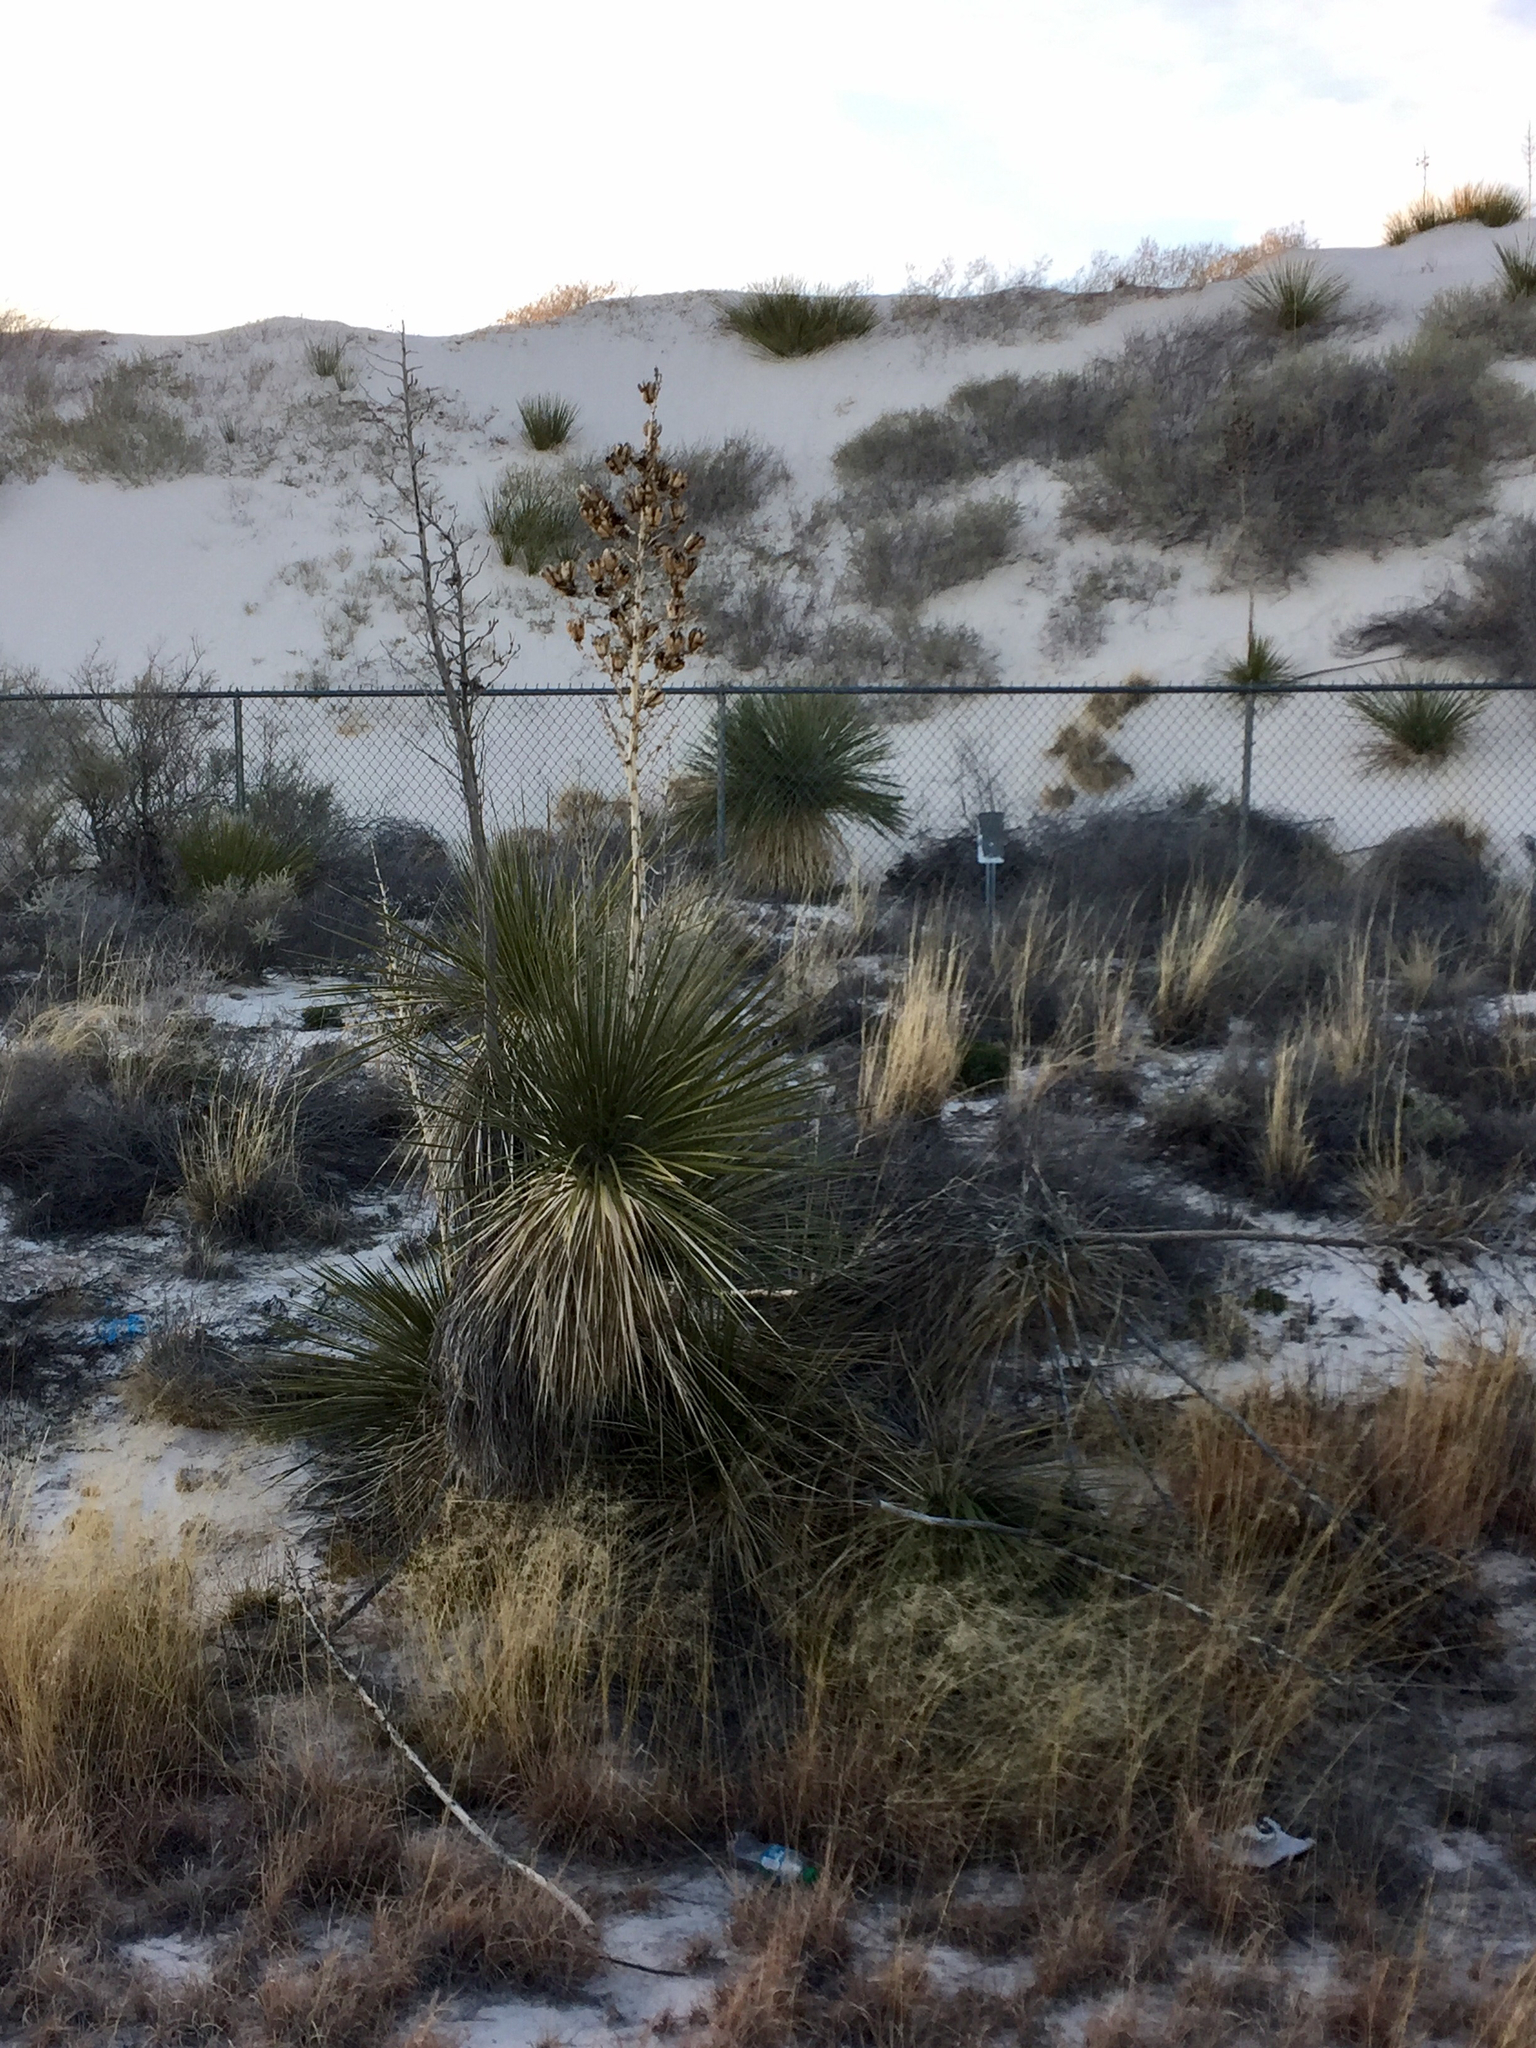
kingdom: Plantae
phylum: Tracheophyta
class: Liliopsida
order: Asparagales
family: Asparagaceae
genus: Yucca
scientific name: Yucca elata
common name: Palmella
